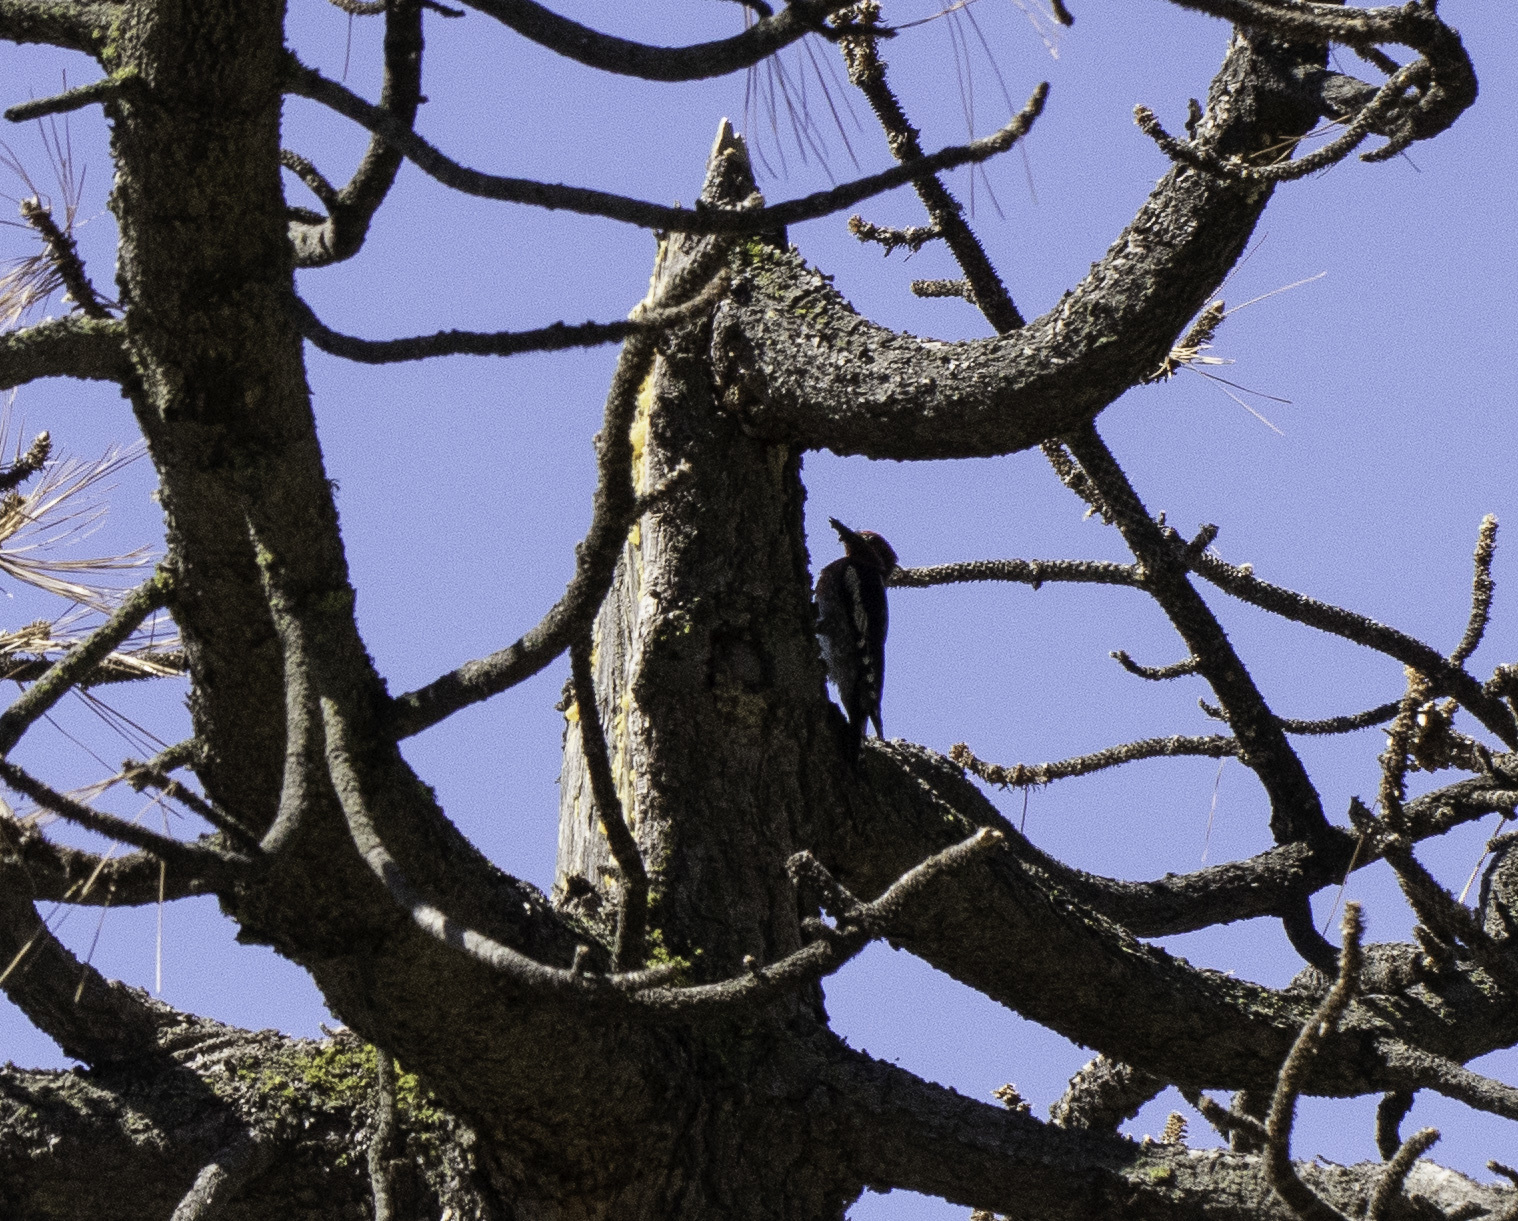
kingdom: Animalia
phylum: Chordata
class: Aves
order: Piciformes
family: Picidae
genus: Sphyrapicus
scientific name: Sphyrapicus ruber
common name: Red-breasted sapsucker
